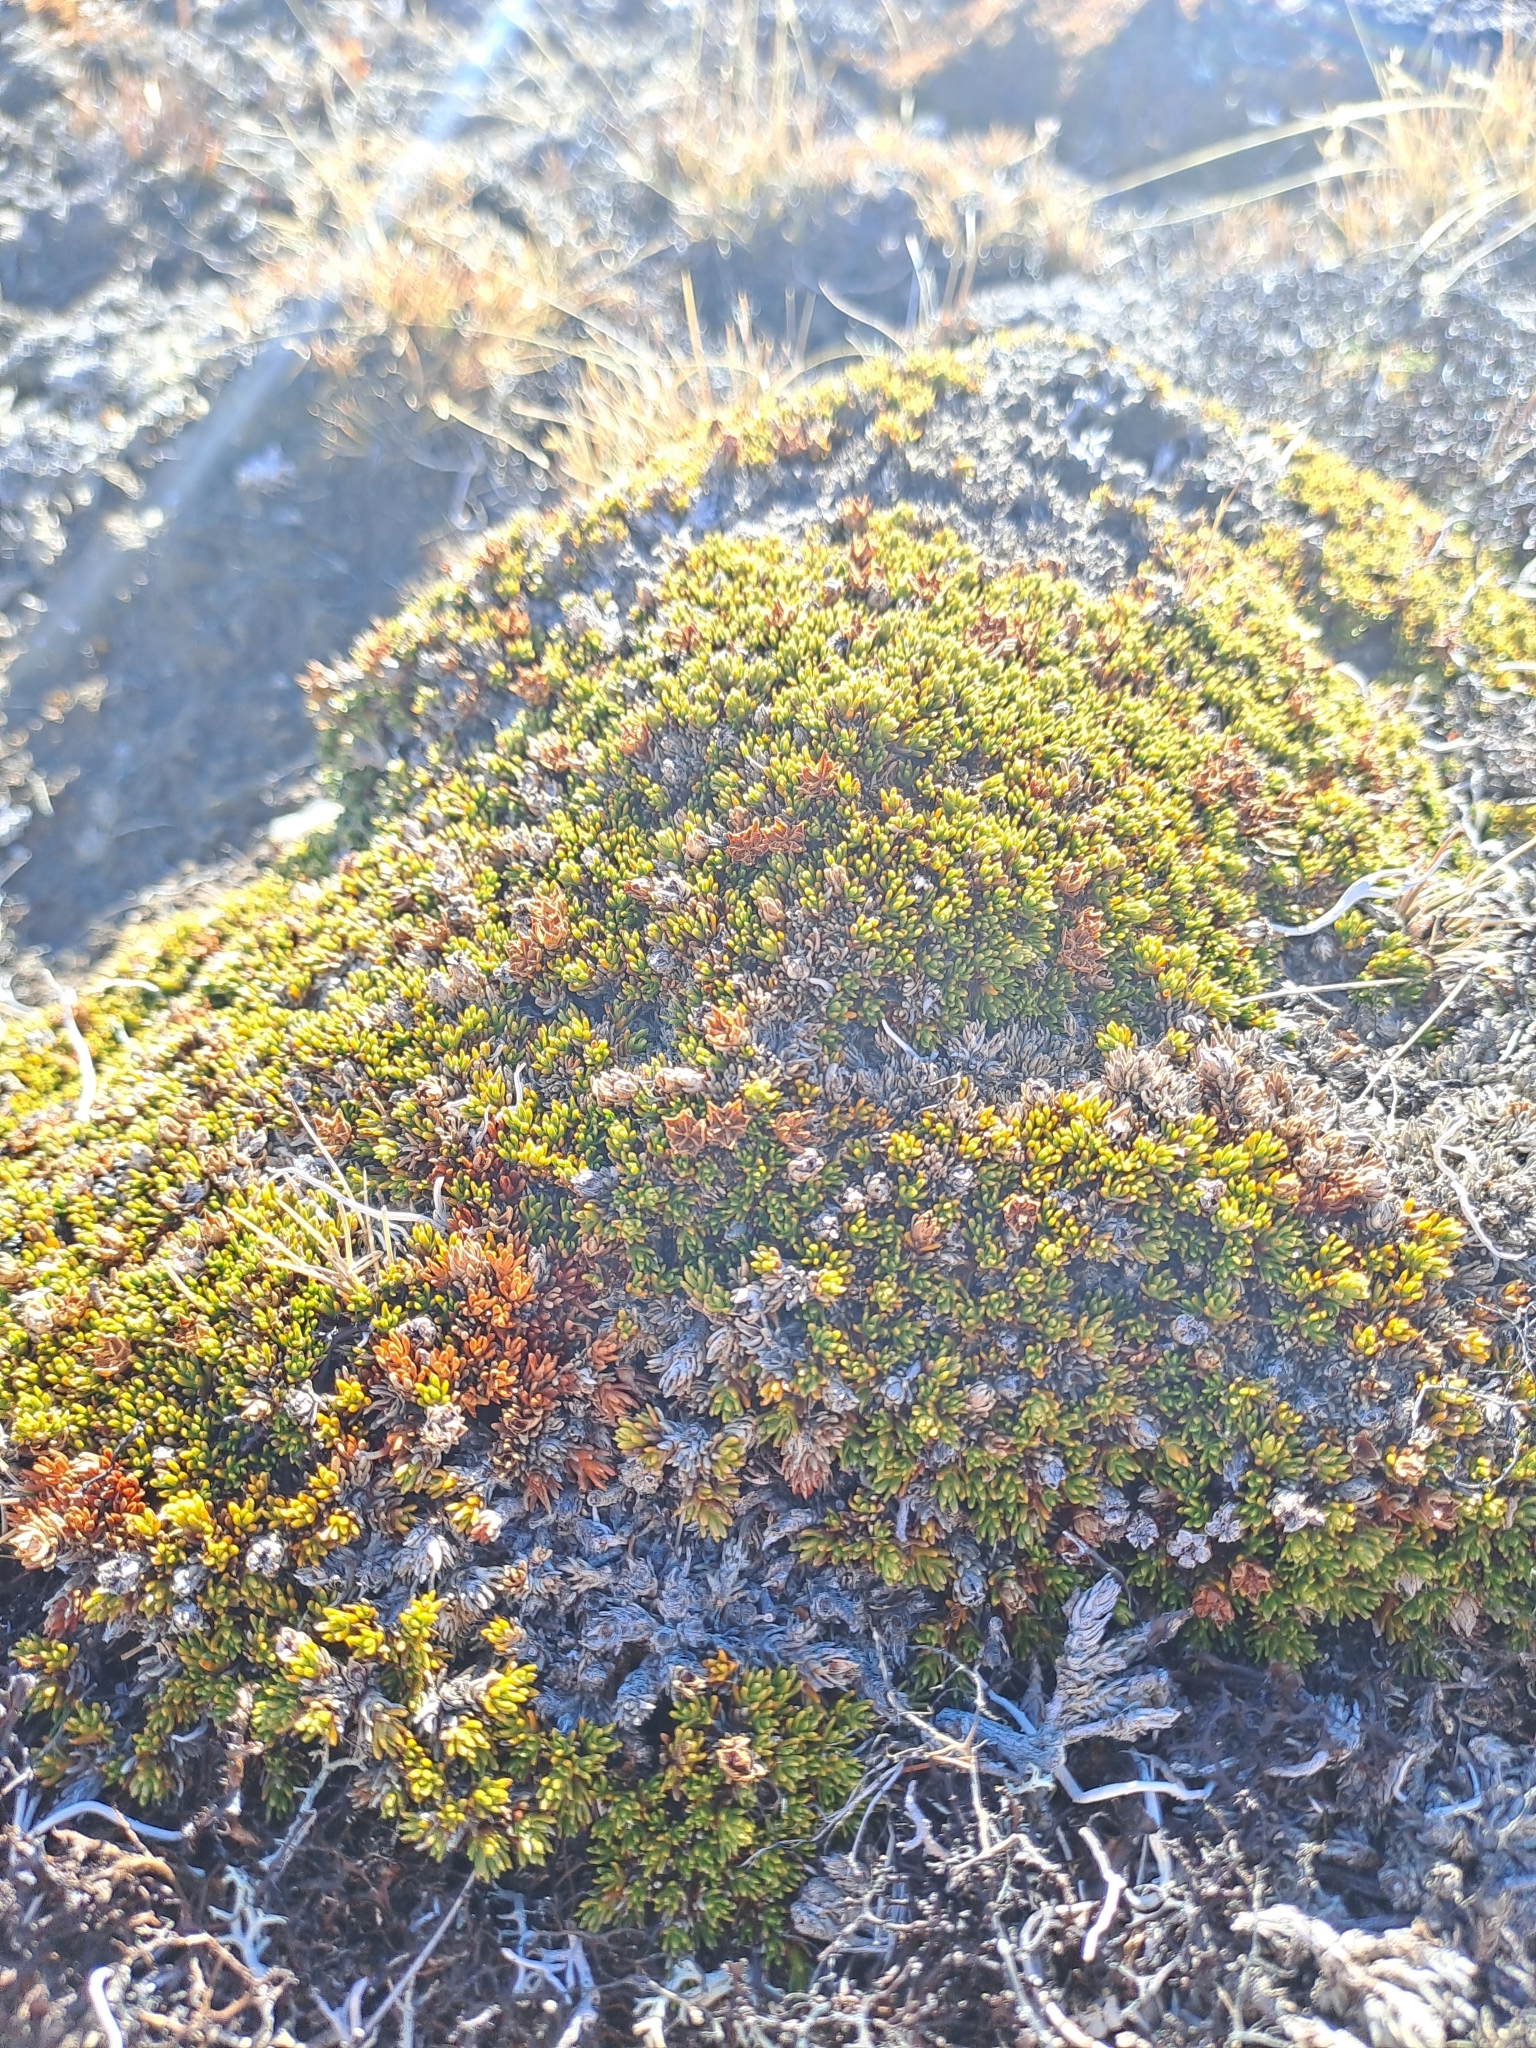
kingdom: Plantae
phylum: Tracheophyta
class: Magnoliopsida
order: Ericales
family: Ericaceae
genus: Dracophyllum
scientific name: Dracophyllum muscoides
